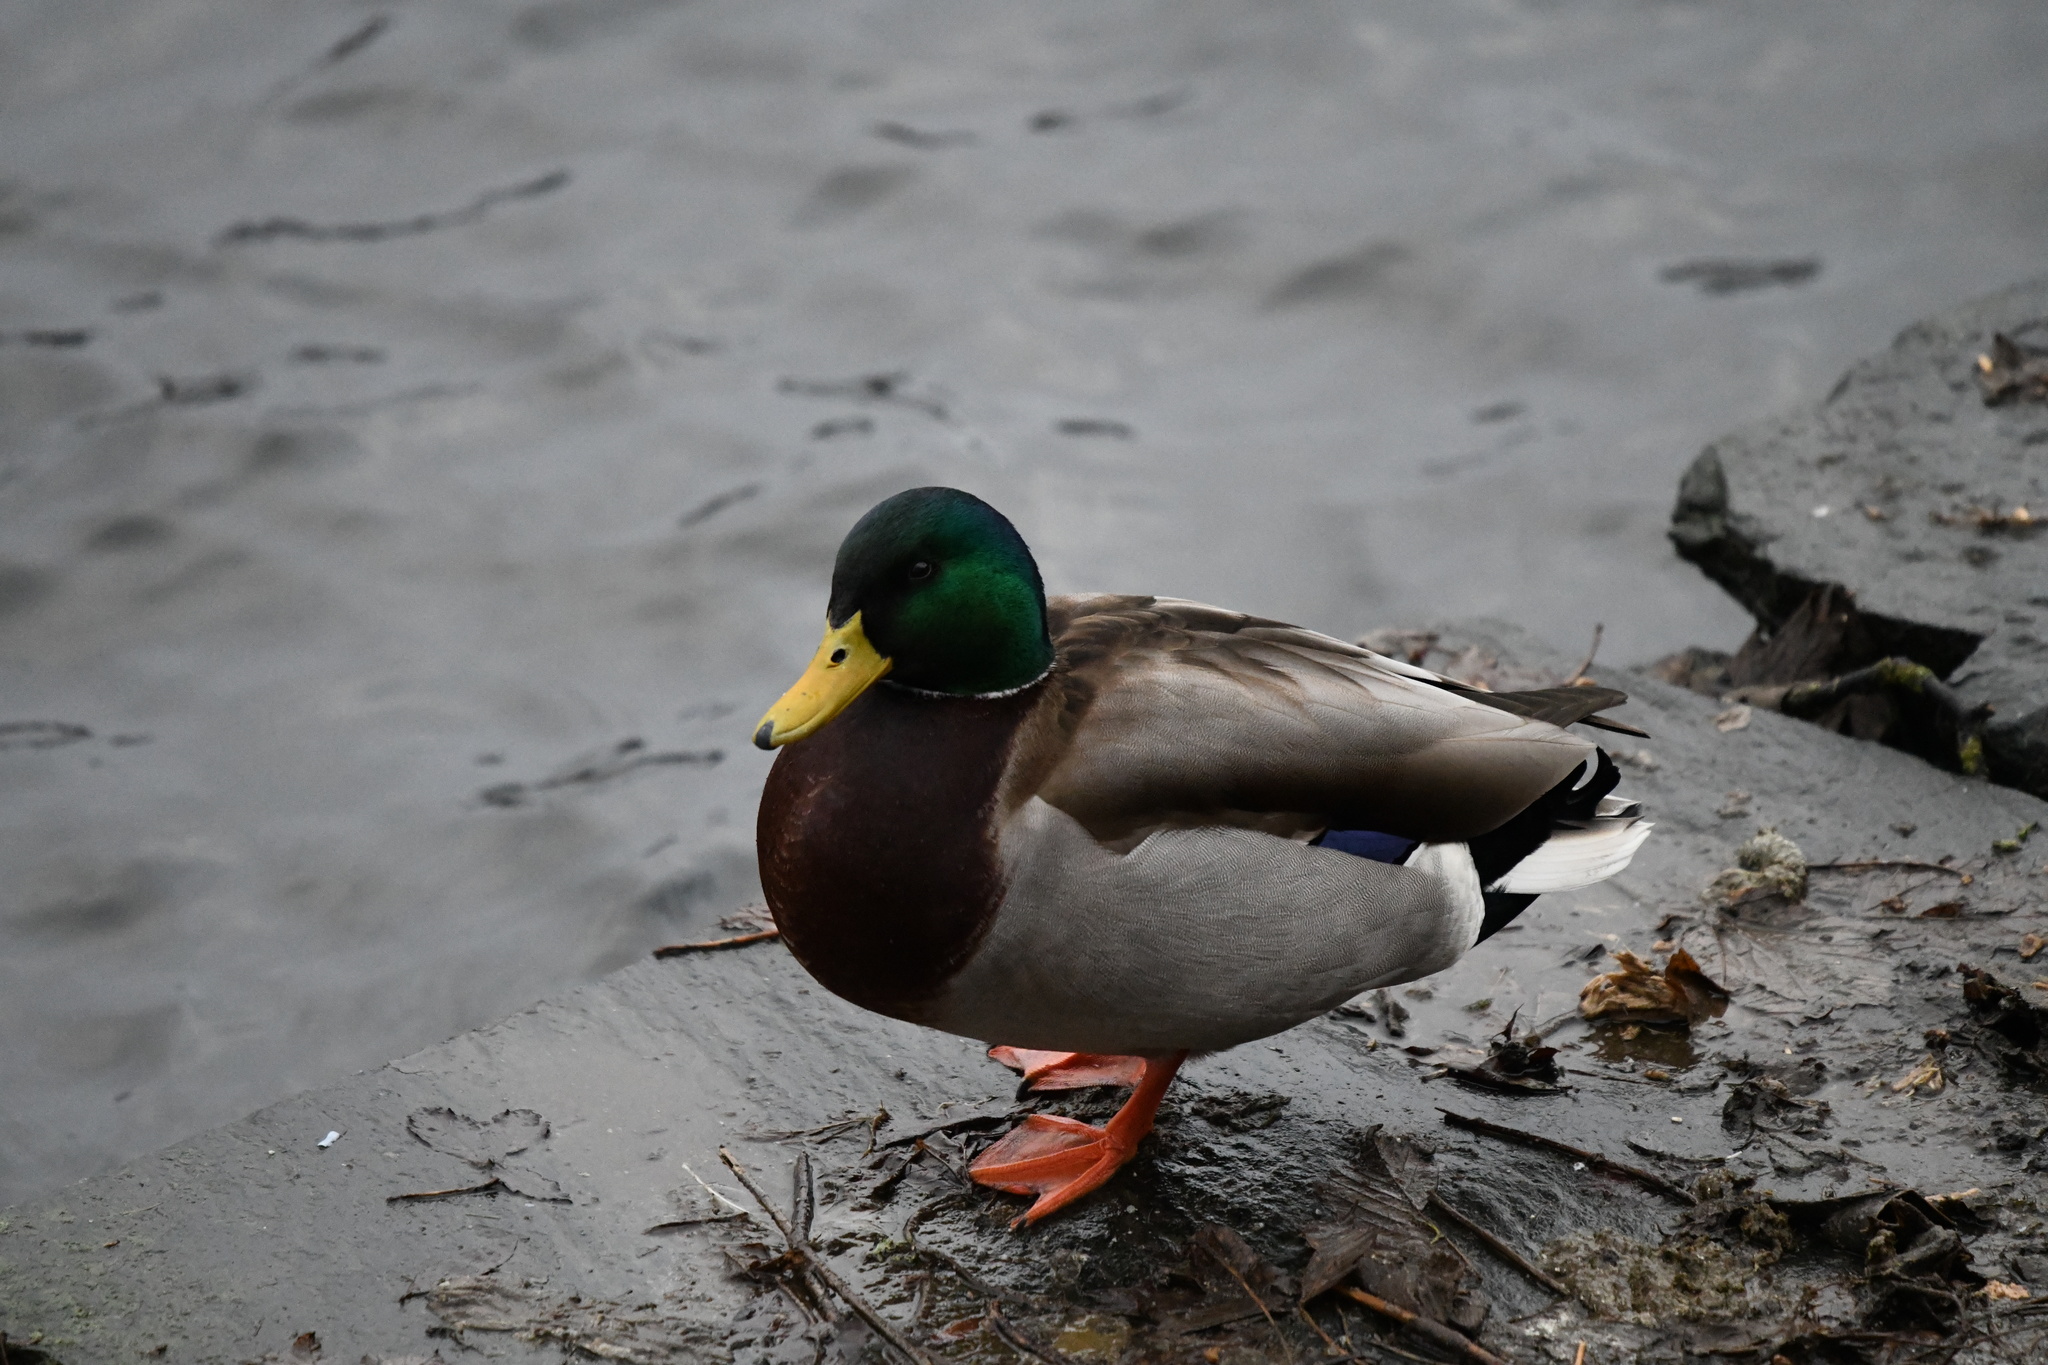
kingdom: Animalia
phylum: Chordata
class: Aves
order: Anseriformes
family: Anatidae
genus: Anas
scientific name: Anas platyrhynchos
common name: Mallard
